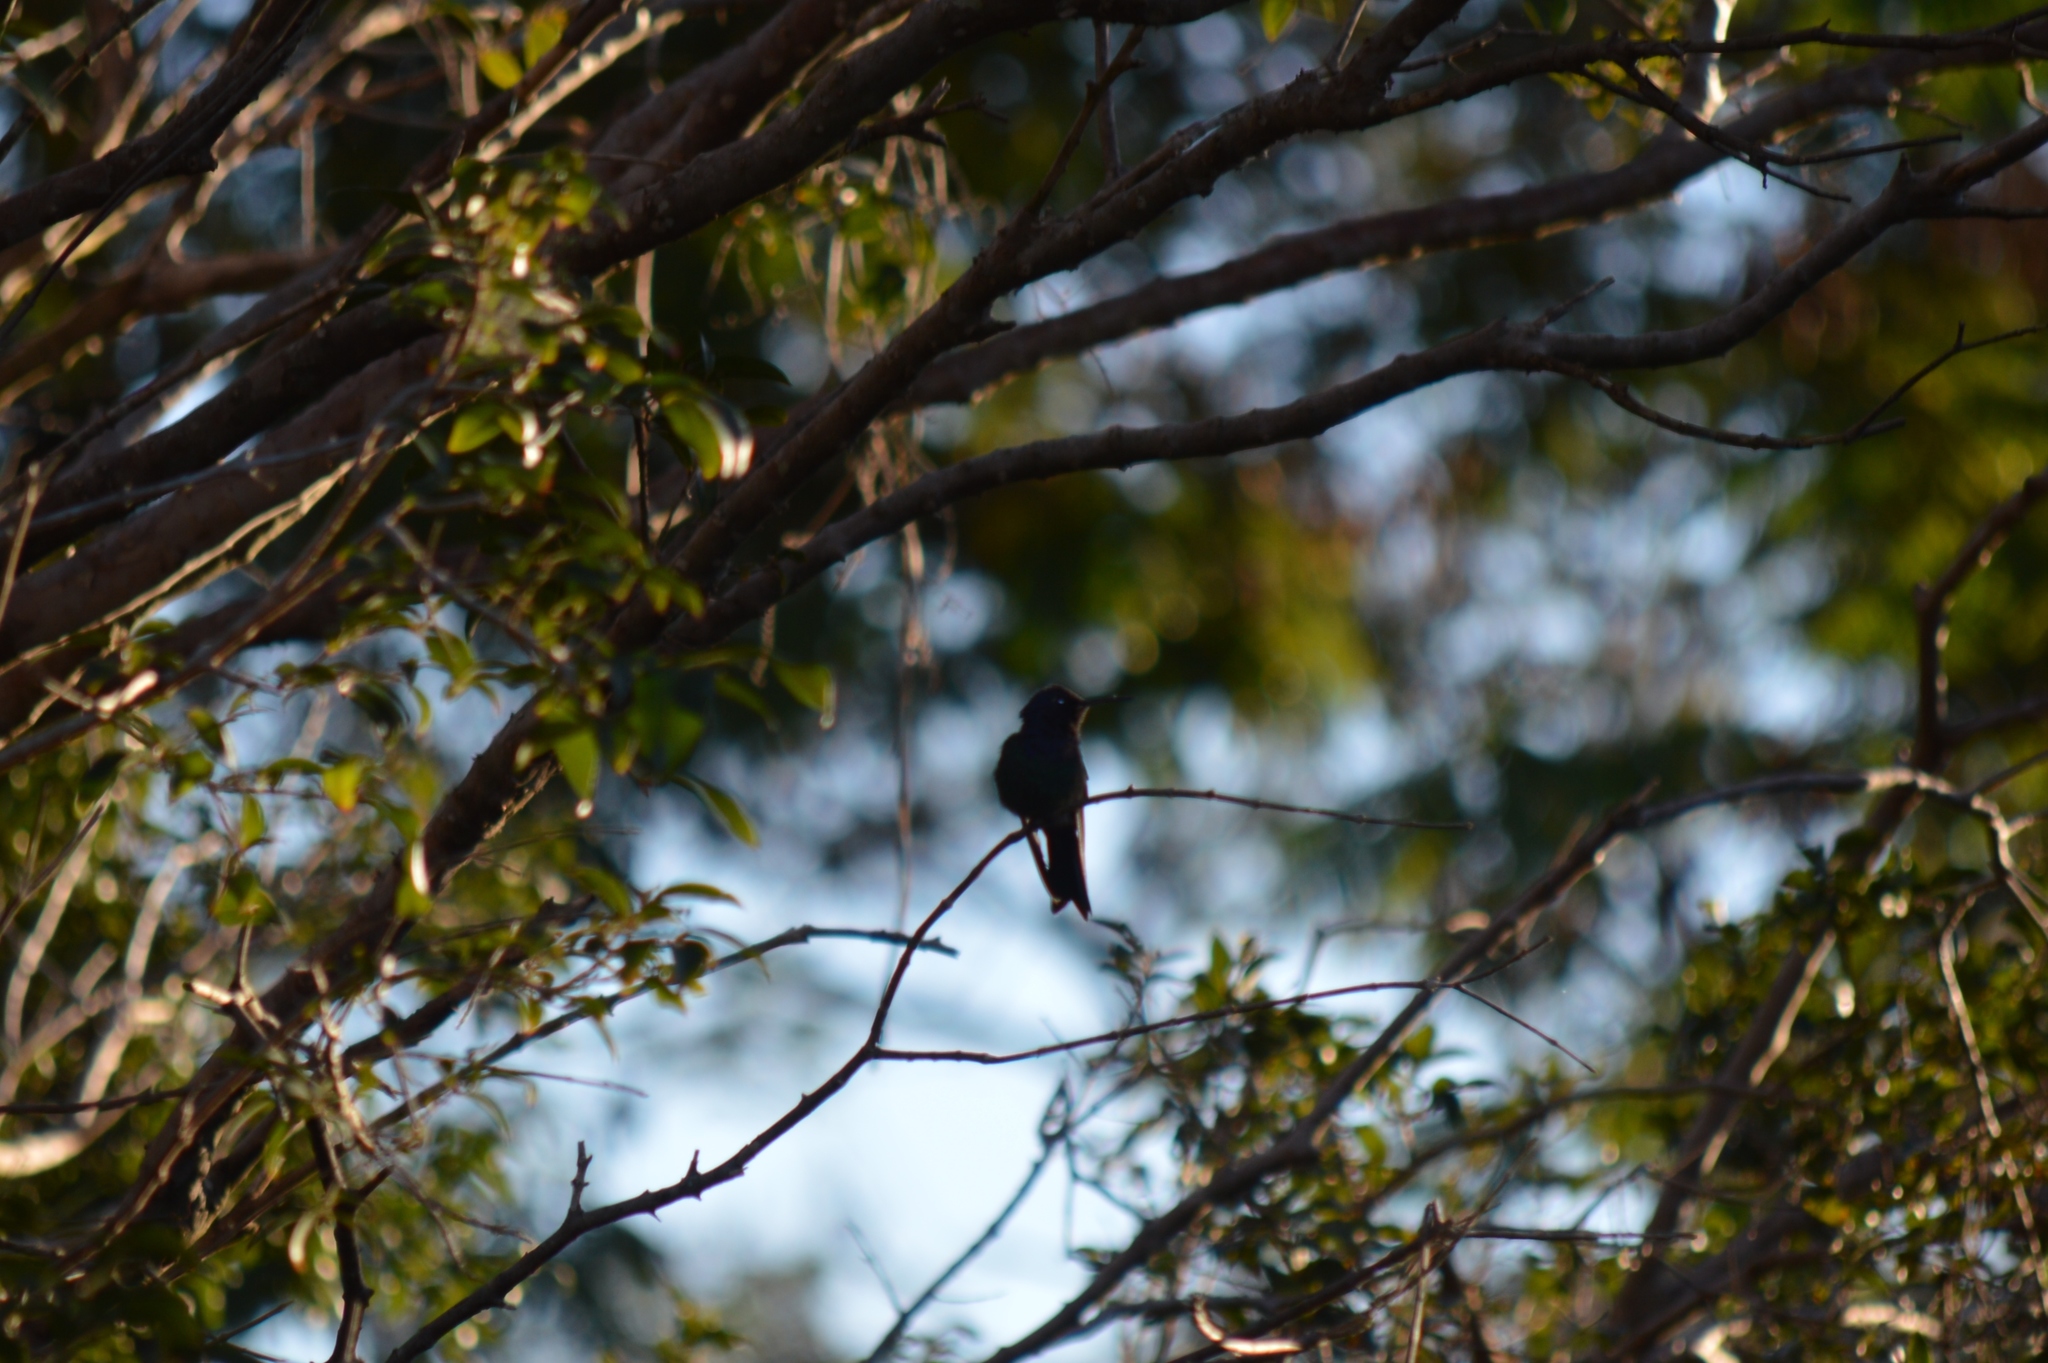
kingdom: Animalia
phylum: Chordata
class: Aves
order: Apodiformes
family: Trochilidae
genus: Eupetomena
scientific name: Eupetomena macroura
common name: Swallow-tailed hummingbird
